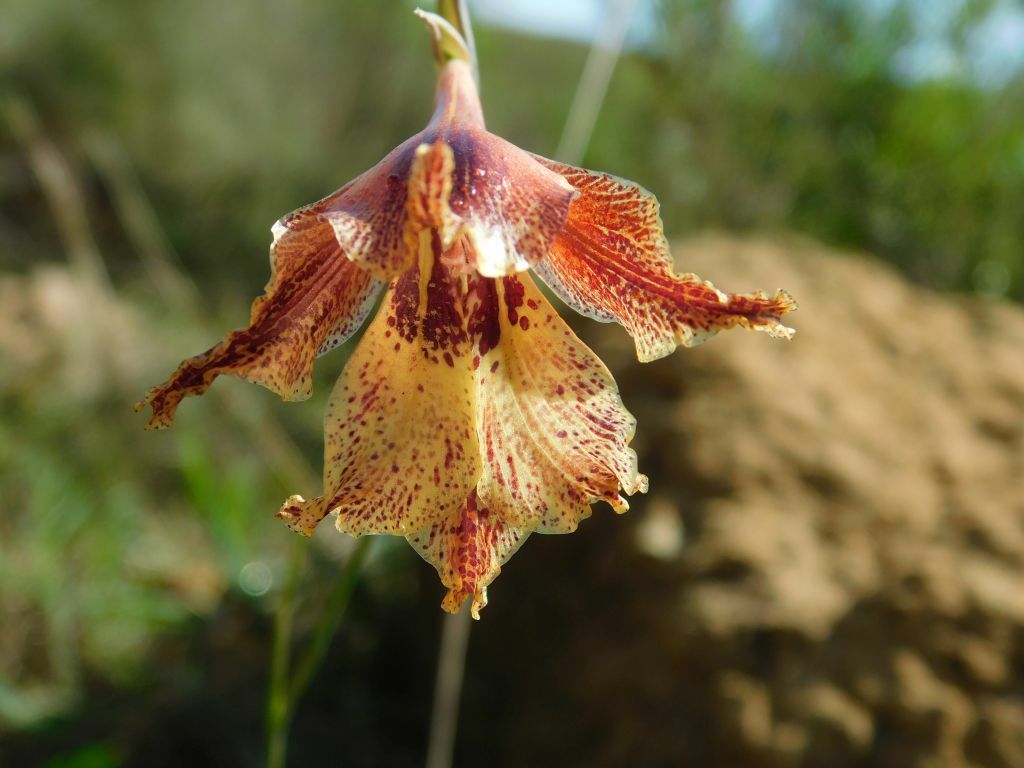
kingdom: Plantae
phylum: Tracheophyta
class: Liliopsida
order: Asparagales
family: Iridaceae
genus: Gladiolus
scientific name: Gladiolus maculatus
